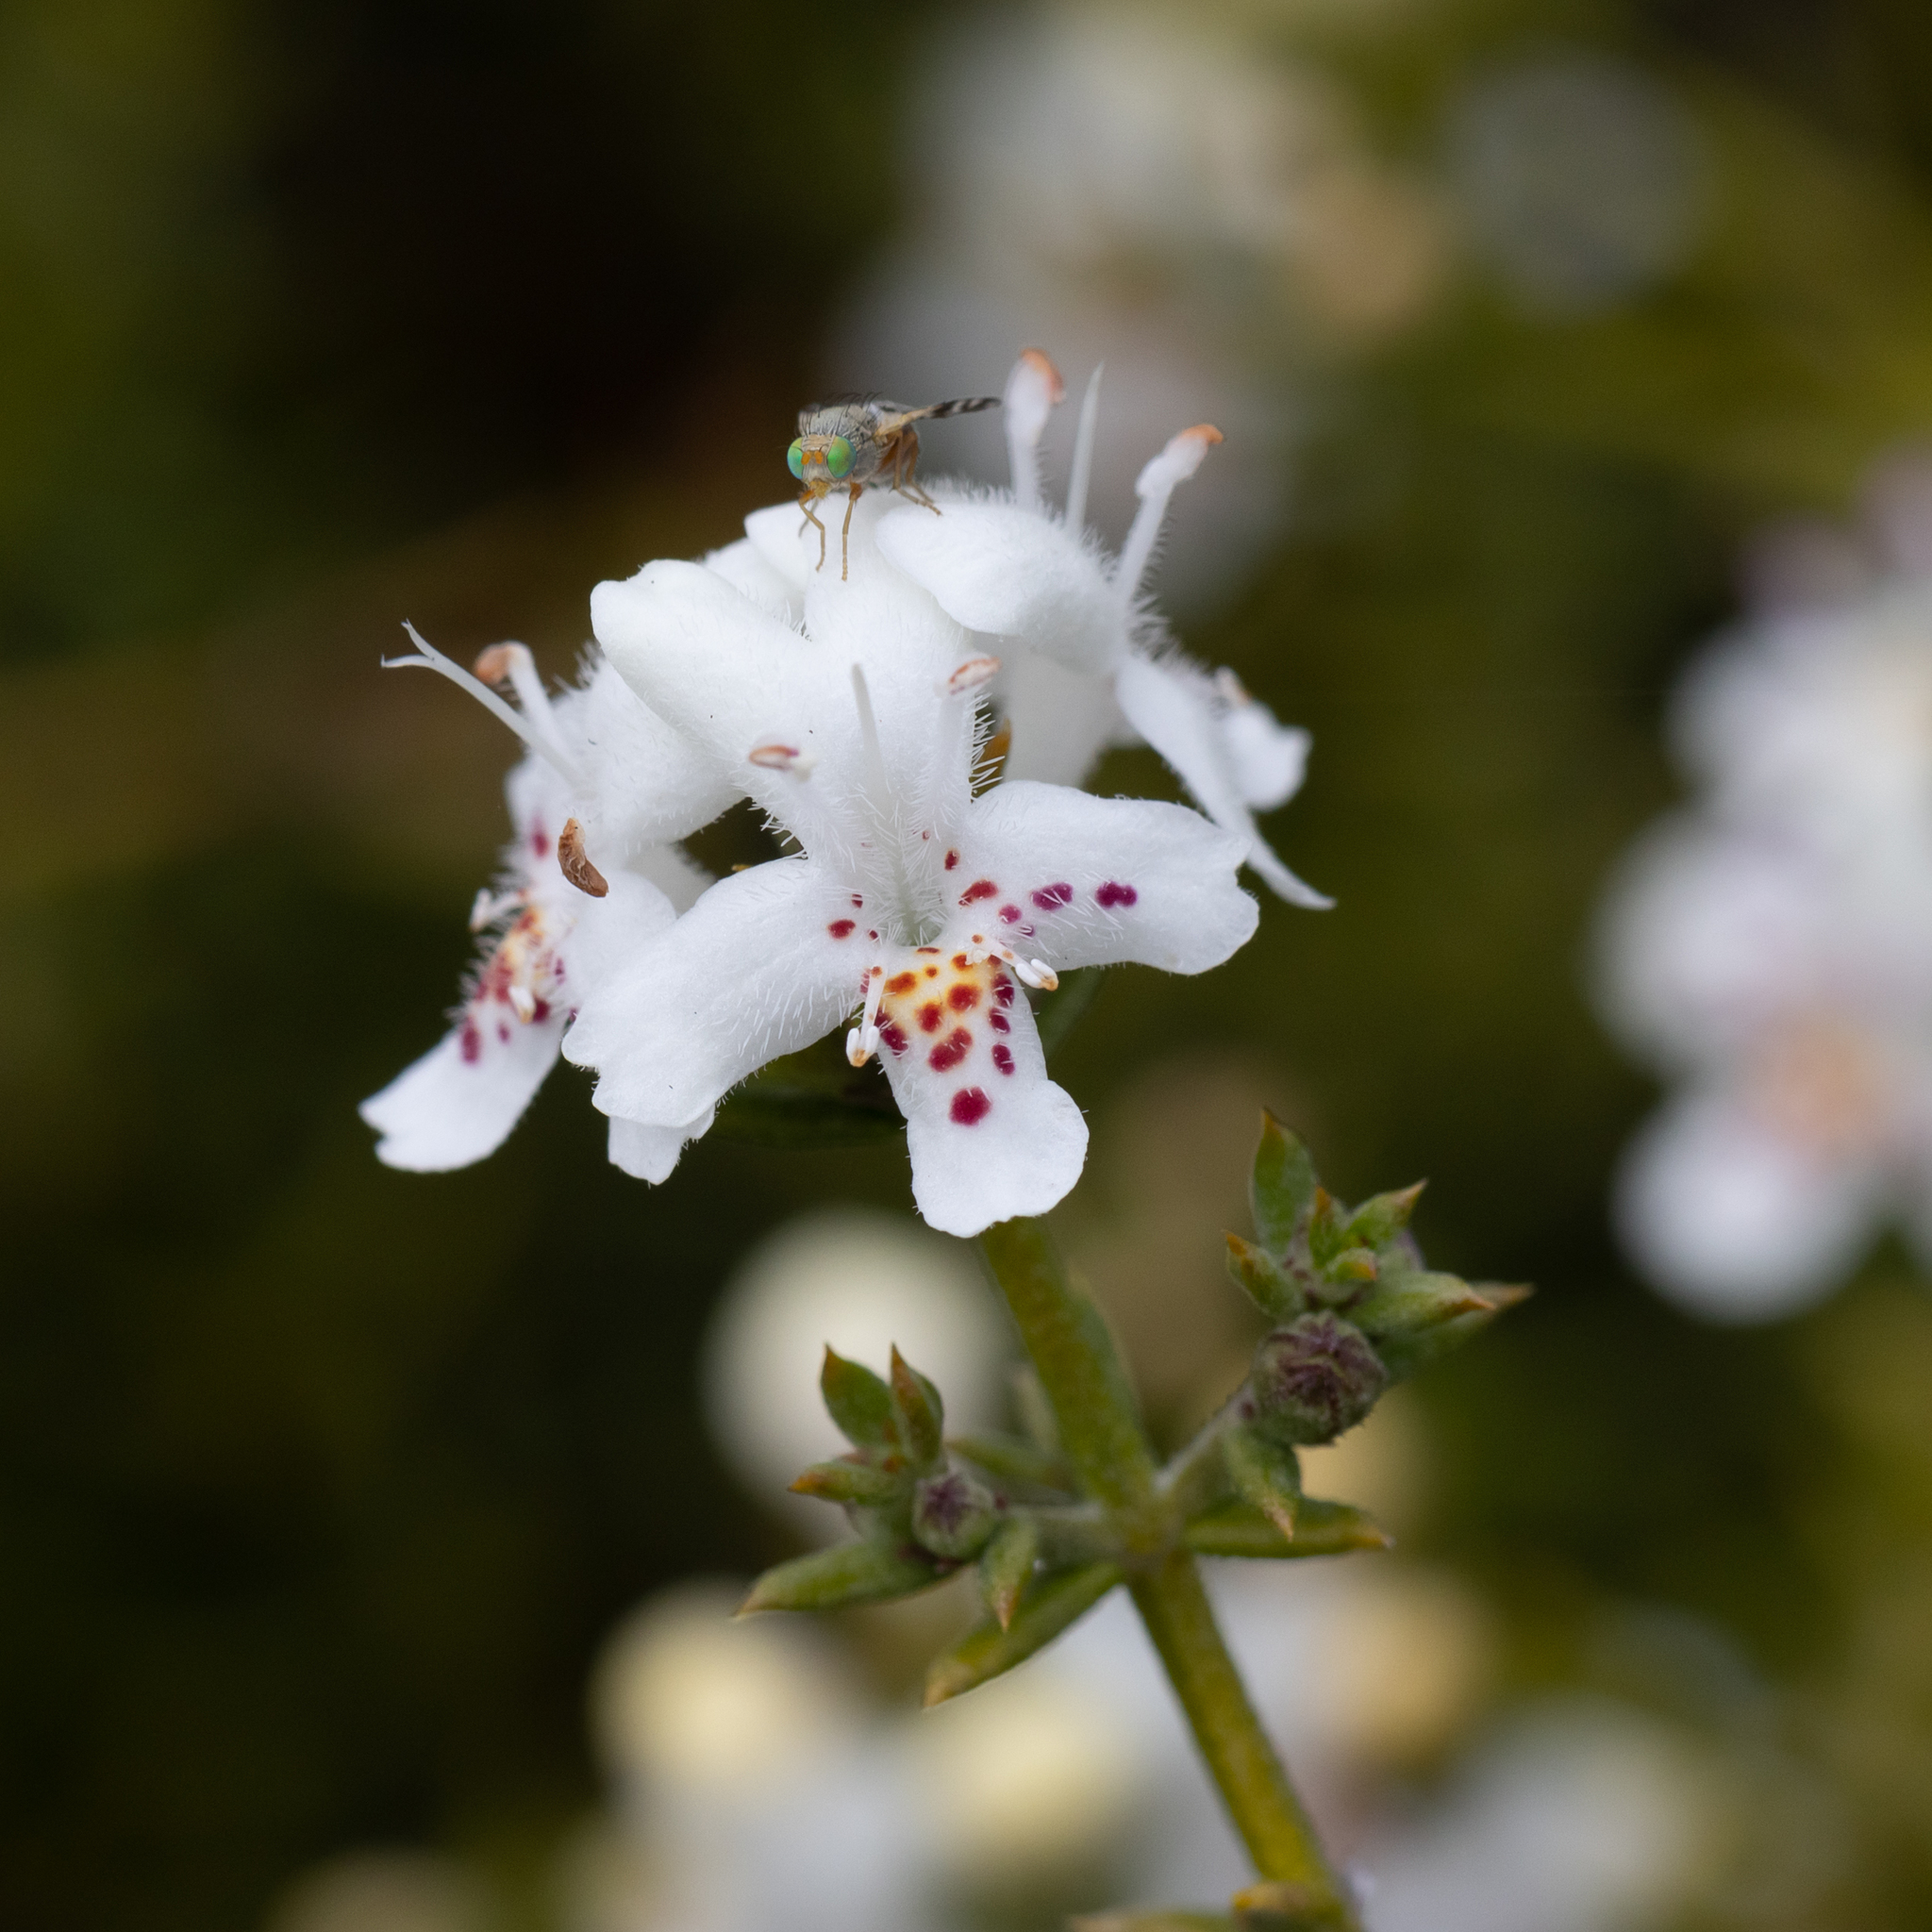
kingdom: Plantae
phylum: Tracheophyta
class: Magnoliopsida
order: Lamiales
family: Lamiaceae
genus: Westringia
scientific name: Westringia rigida
